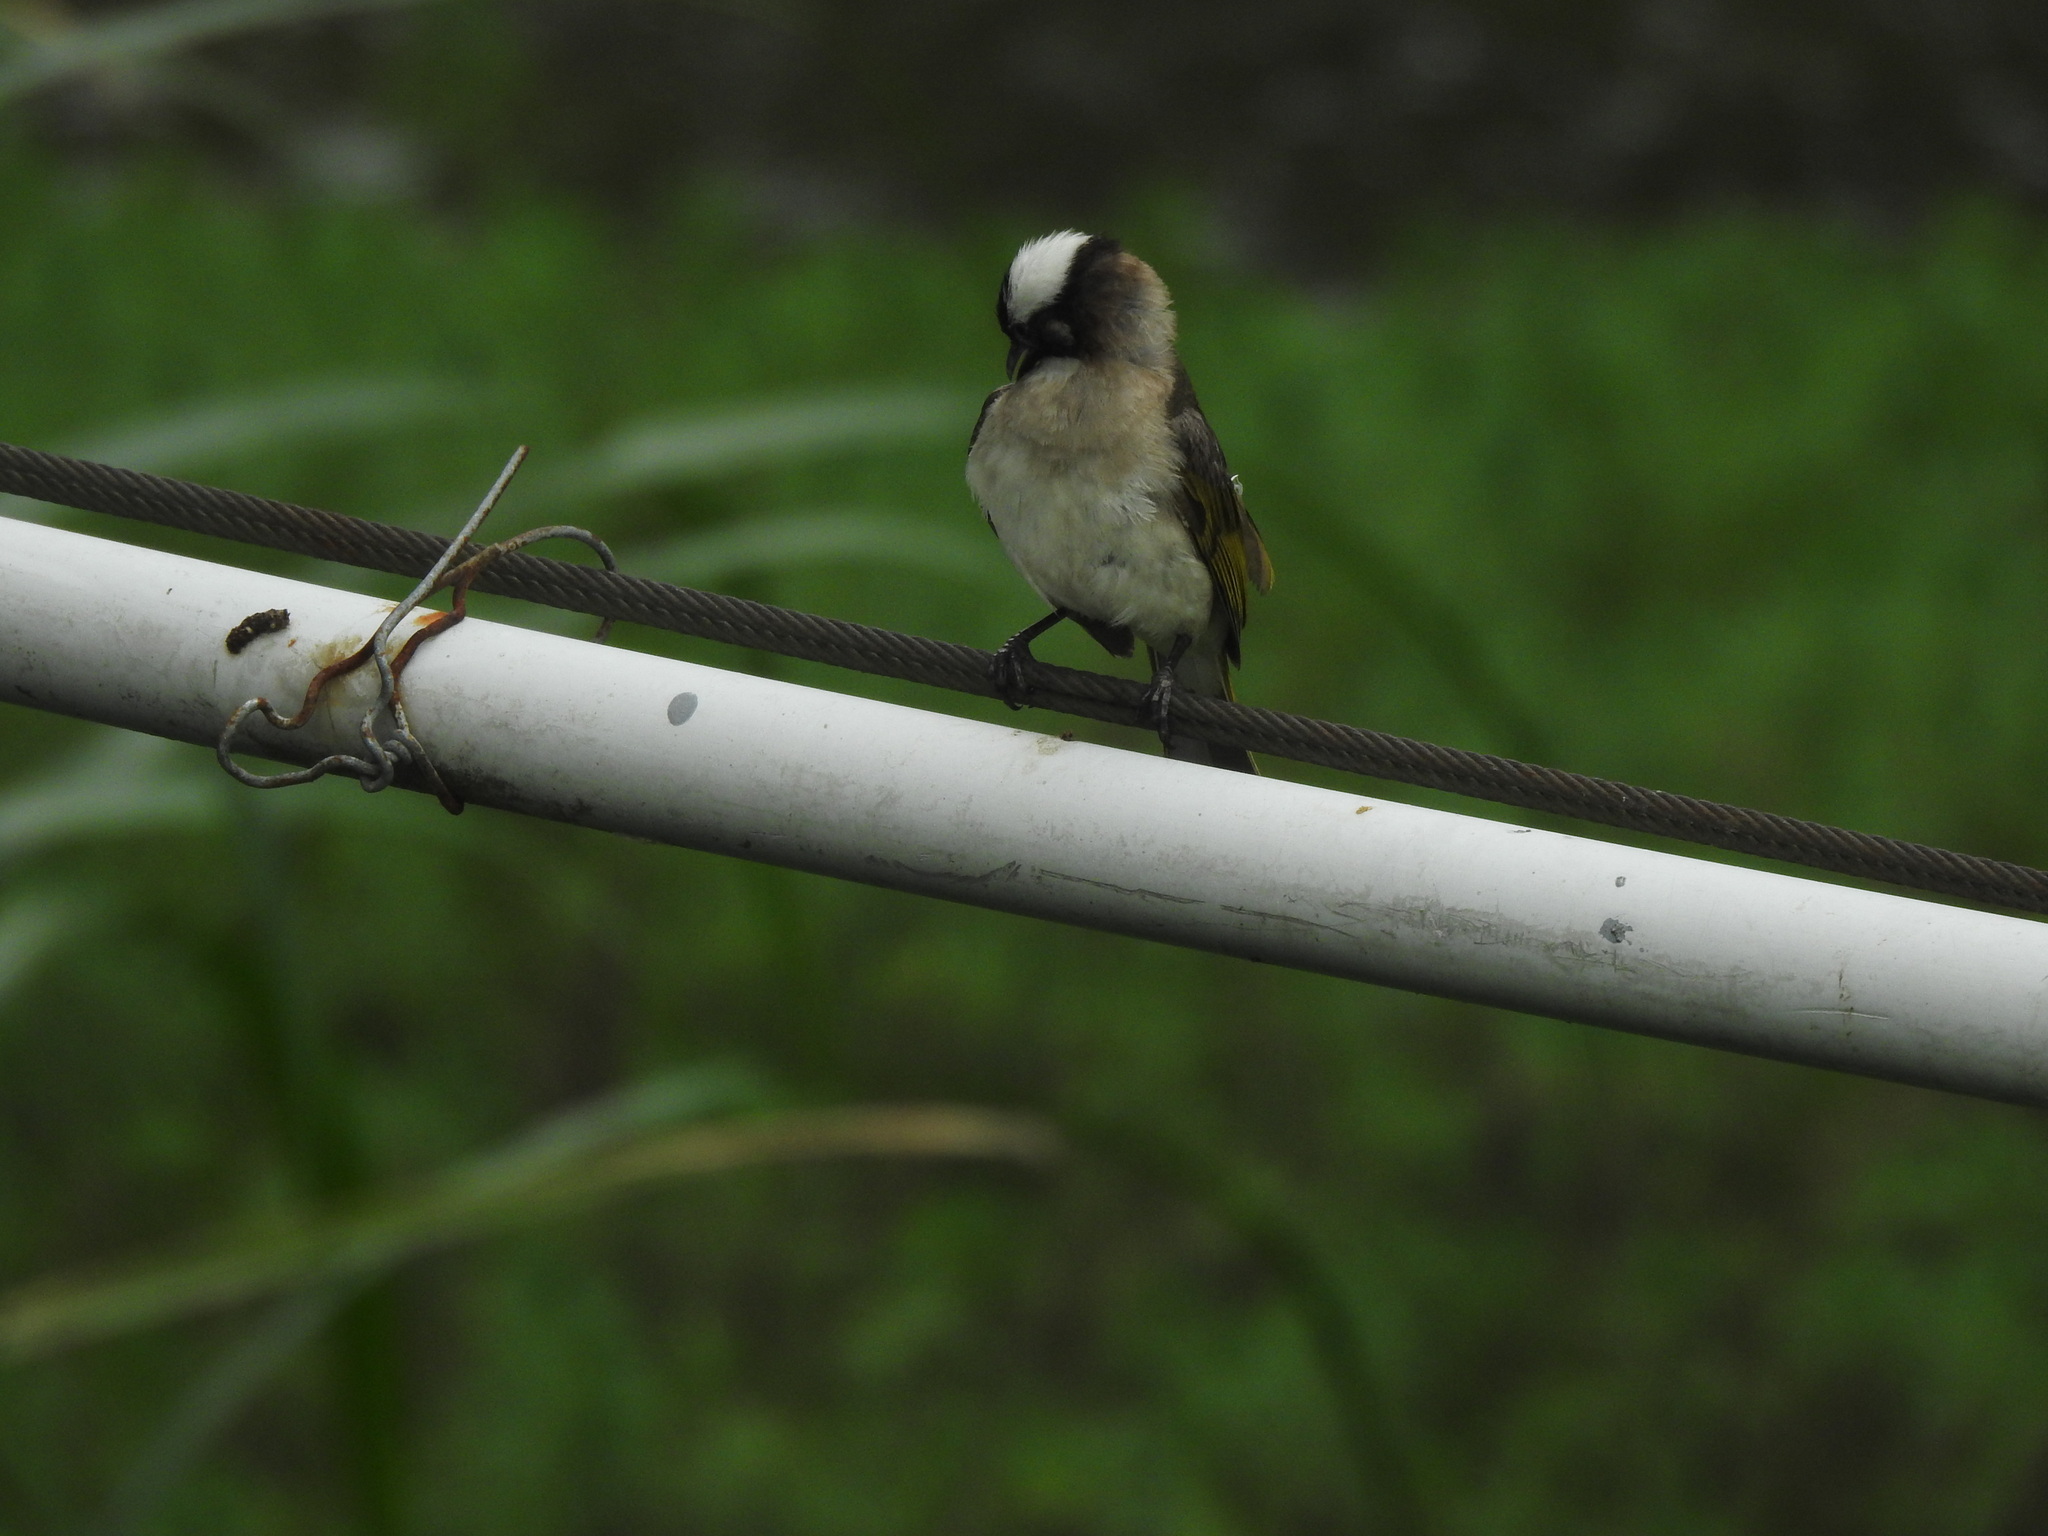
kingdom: Animalia
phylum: Chordata
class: Aves
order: Passeriformes
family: Pycnonotidae
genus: Pycnonotus
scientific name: Pycnonotus sinensis
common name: Light-vented bulbul
